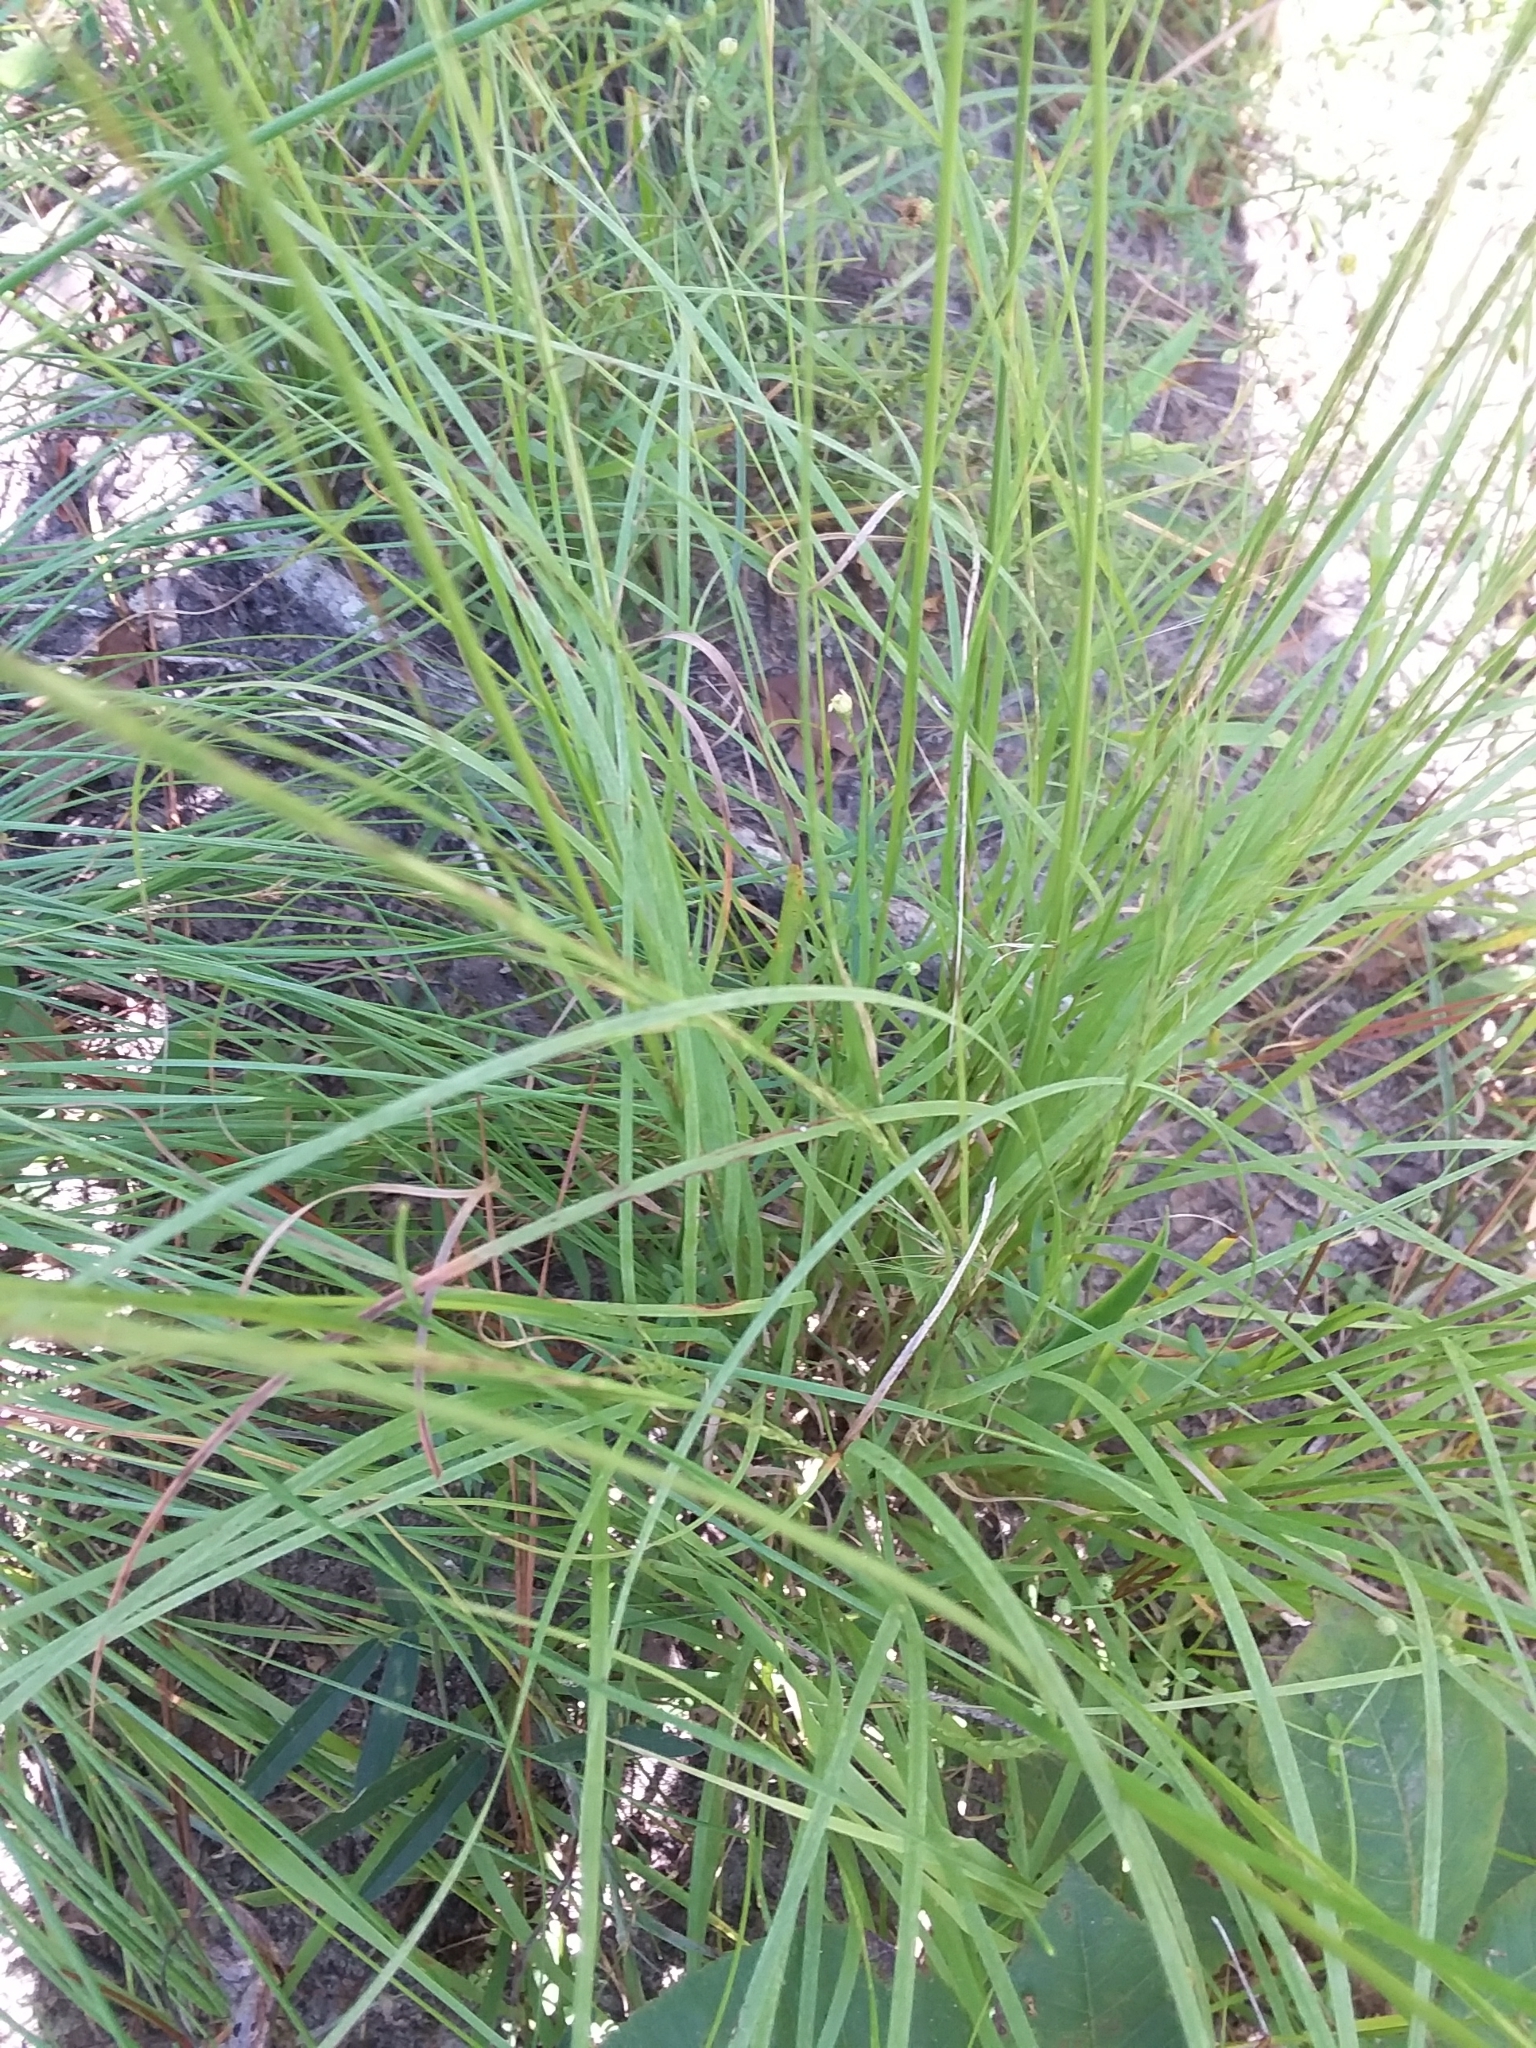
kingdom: Plantae
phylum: Tracheophyta
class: Liliopsida
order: Poales
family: Poaceae
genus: Aristida
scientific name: Aristida purpurascens
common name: Arrow-feather
